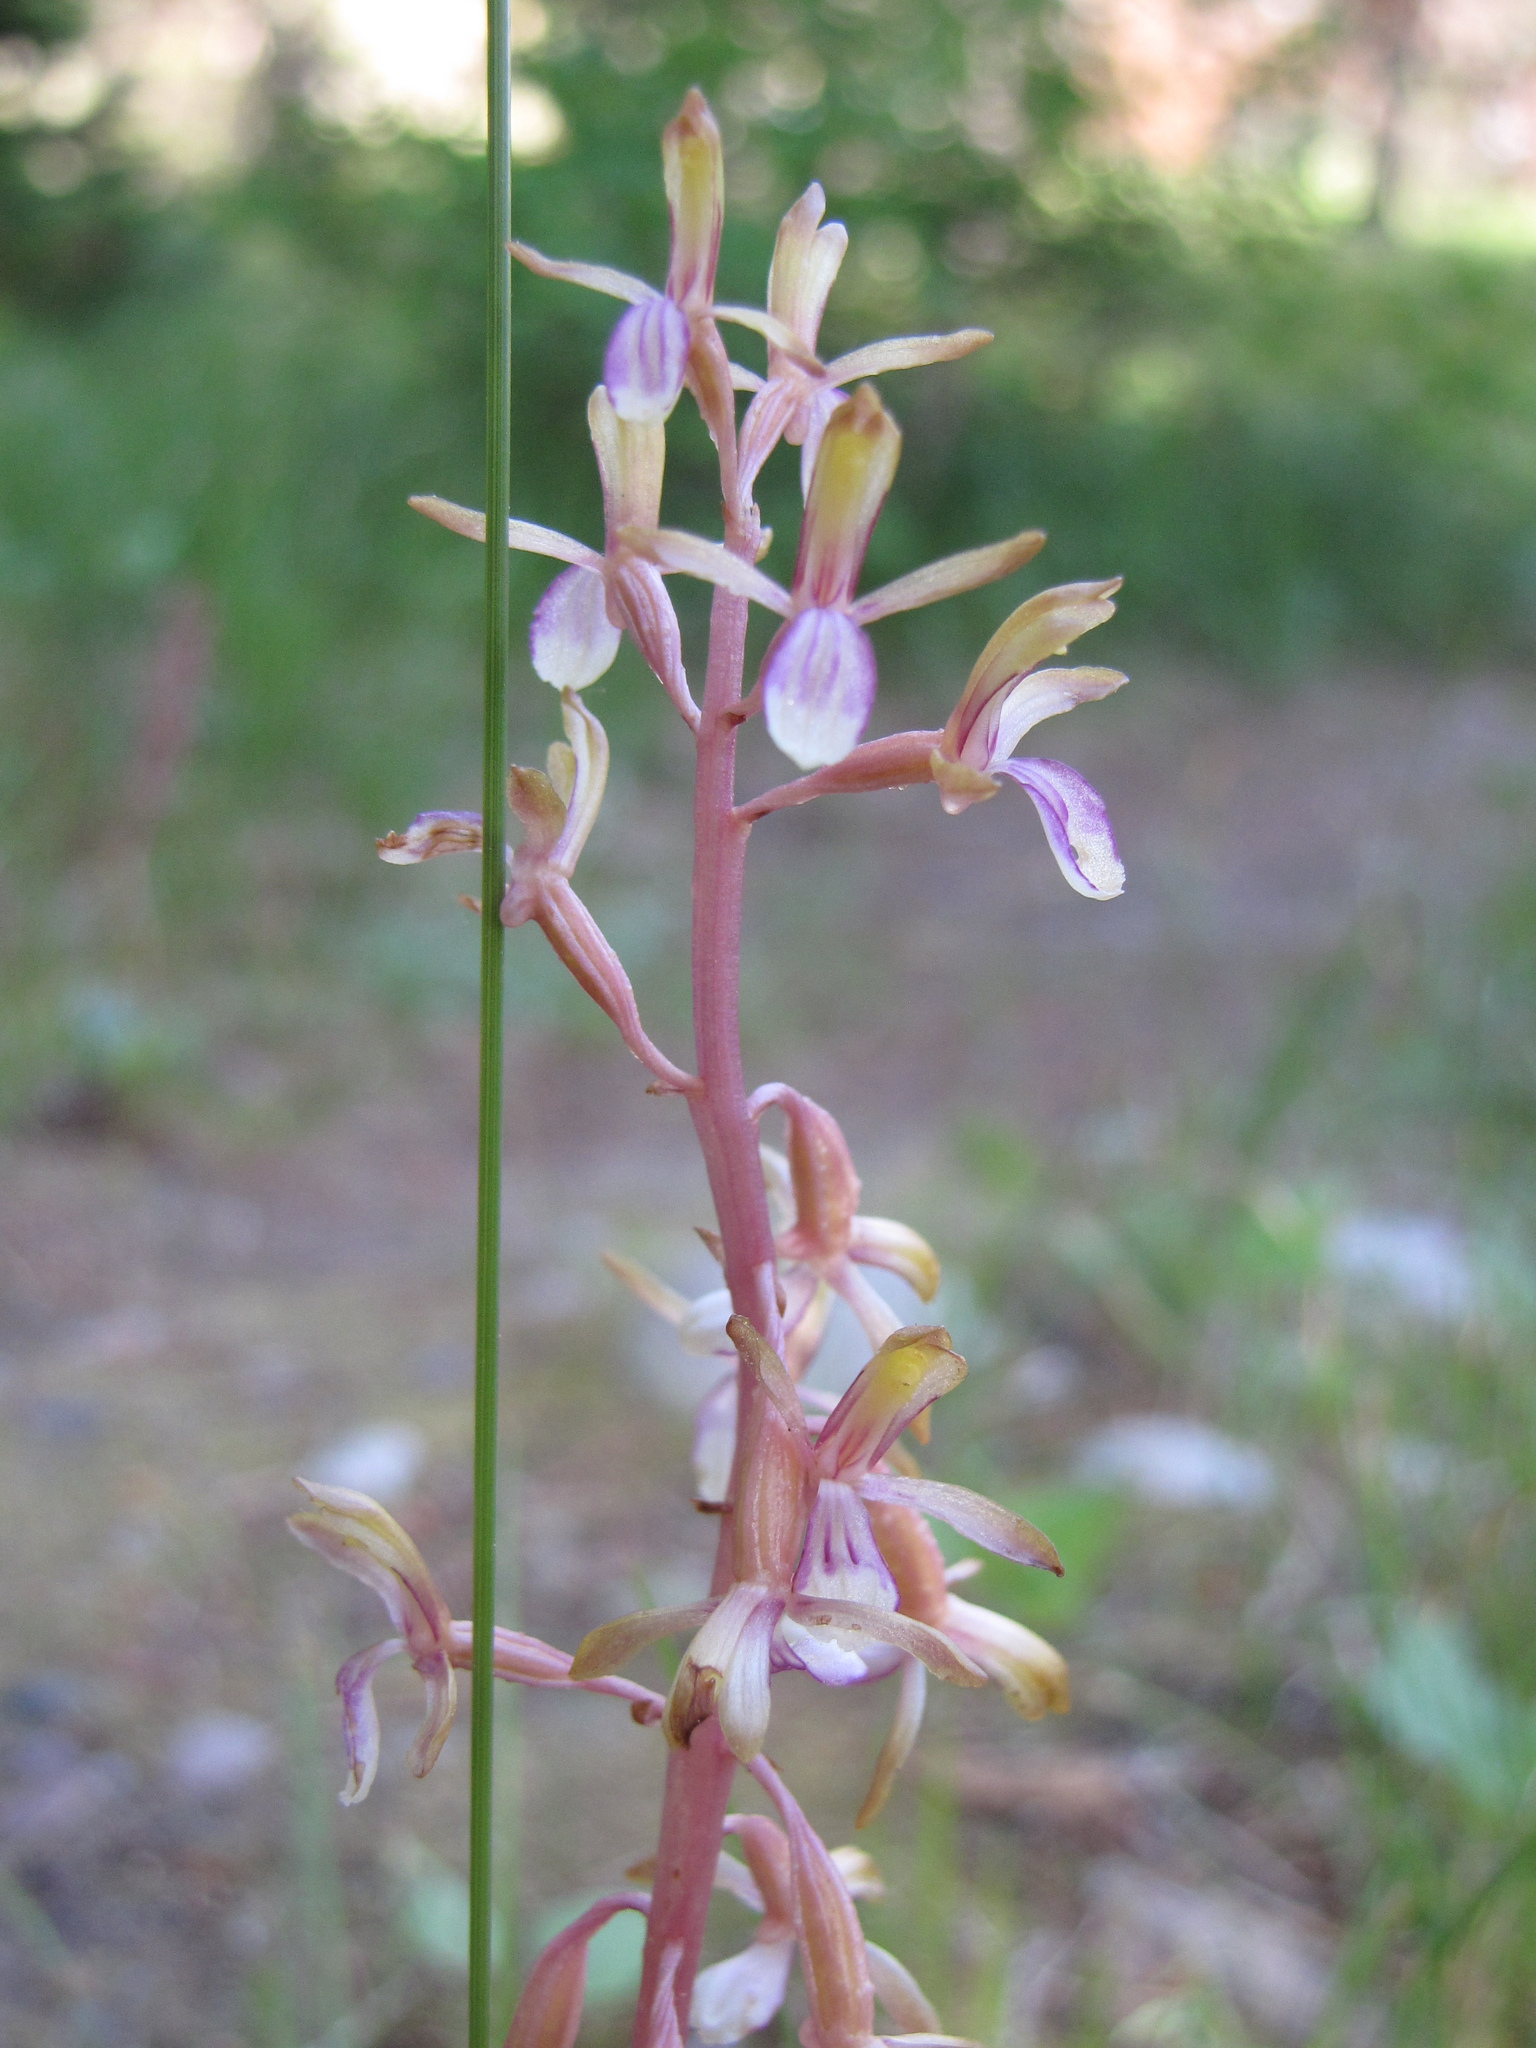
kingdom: Plantae
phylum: Tracheophyta
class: Liliopsida
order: Asparagales
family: Orchidaceae
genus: Corallorhiza
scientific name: Corallorhiza mertensiana
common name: Pacific coralroot
